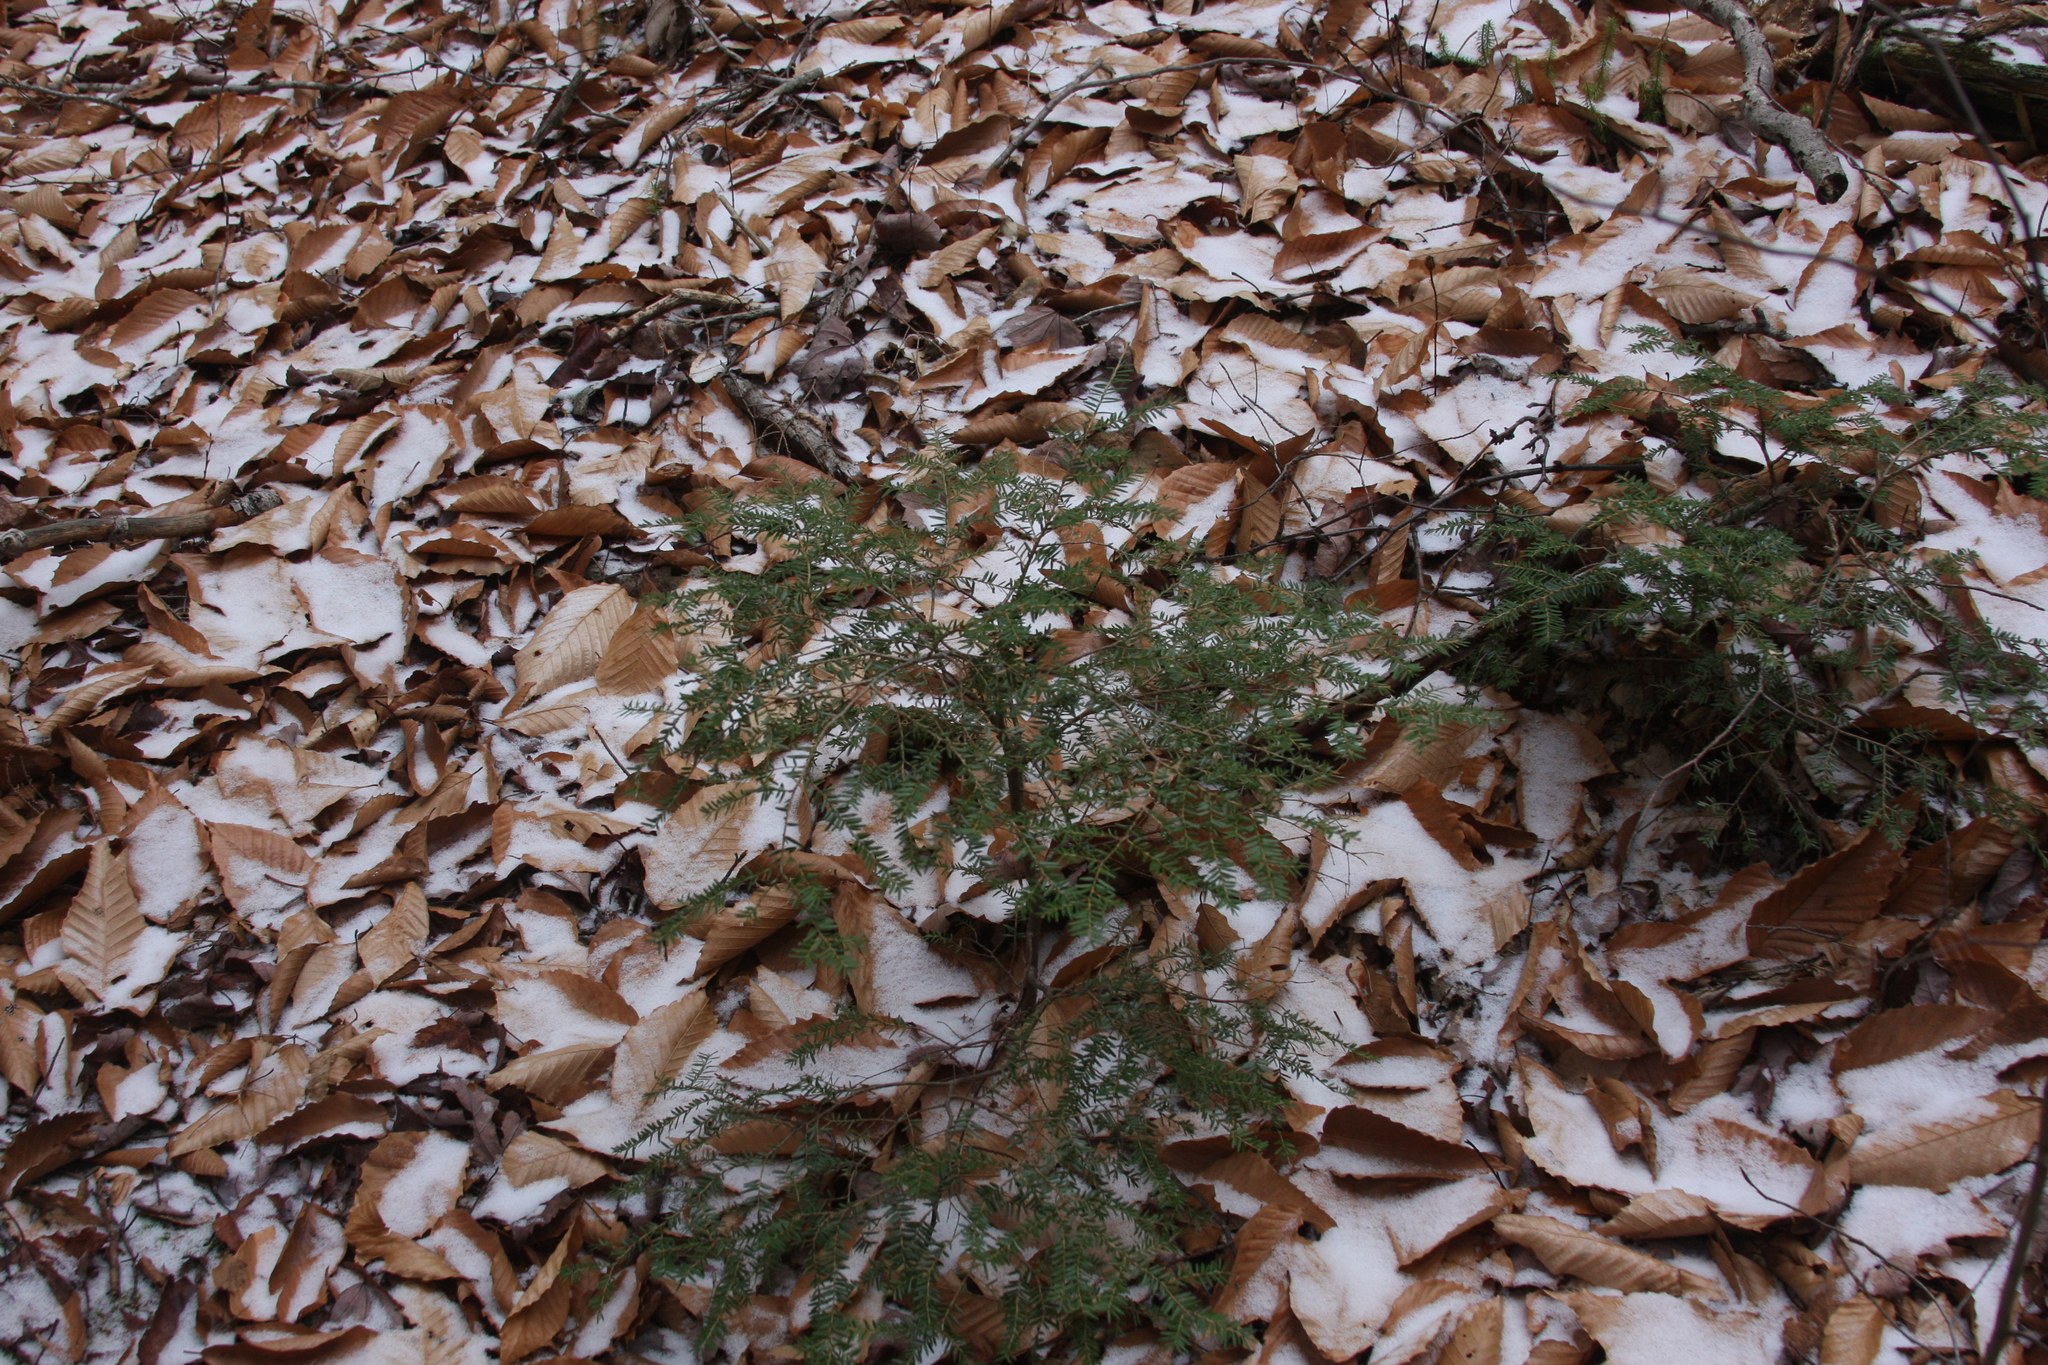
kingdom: Plantae
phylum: Tracheophyta
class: Pinopsida
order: Pinales
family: Pinaceae
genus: Tsuga
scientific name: Tsuga canadensis
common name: Eastern hemlock
